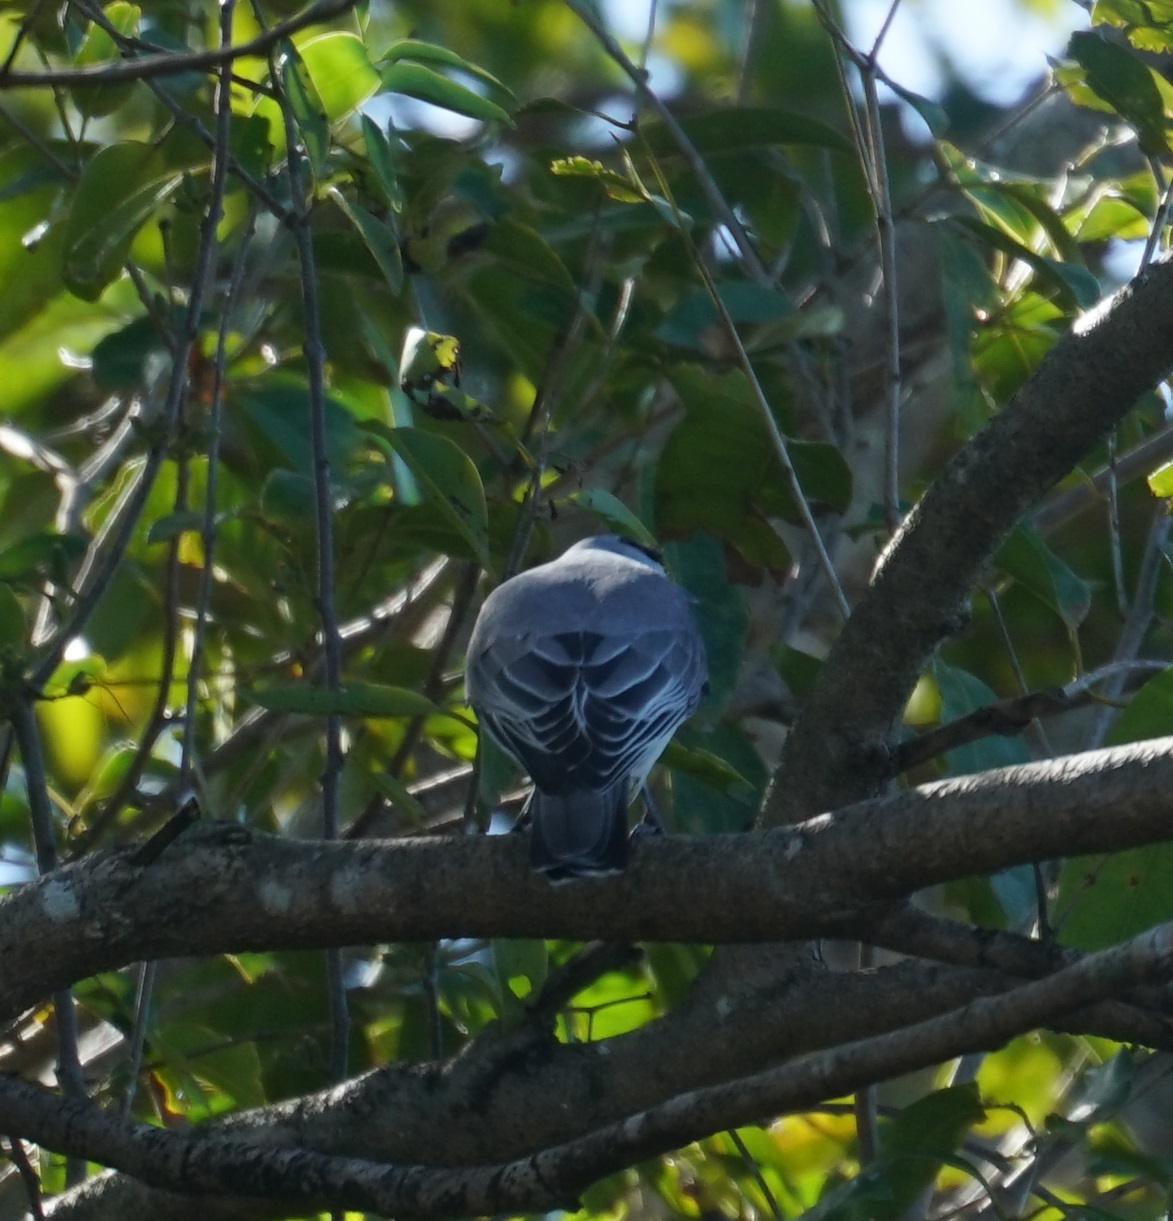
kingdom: Animalia
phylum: Chordata
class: Aves
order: Passeriformes
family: Campephagidae
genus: Coracina
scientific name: Coracina papuensis
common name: White-bellied cuckooshrike
